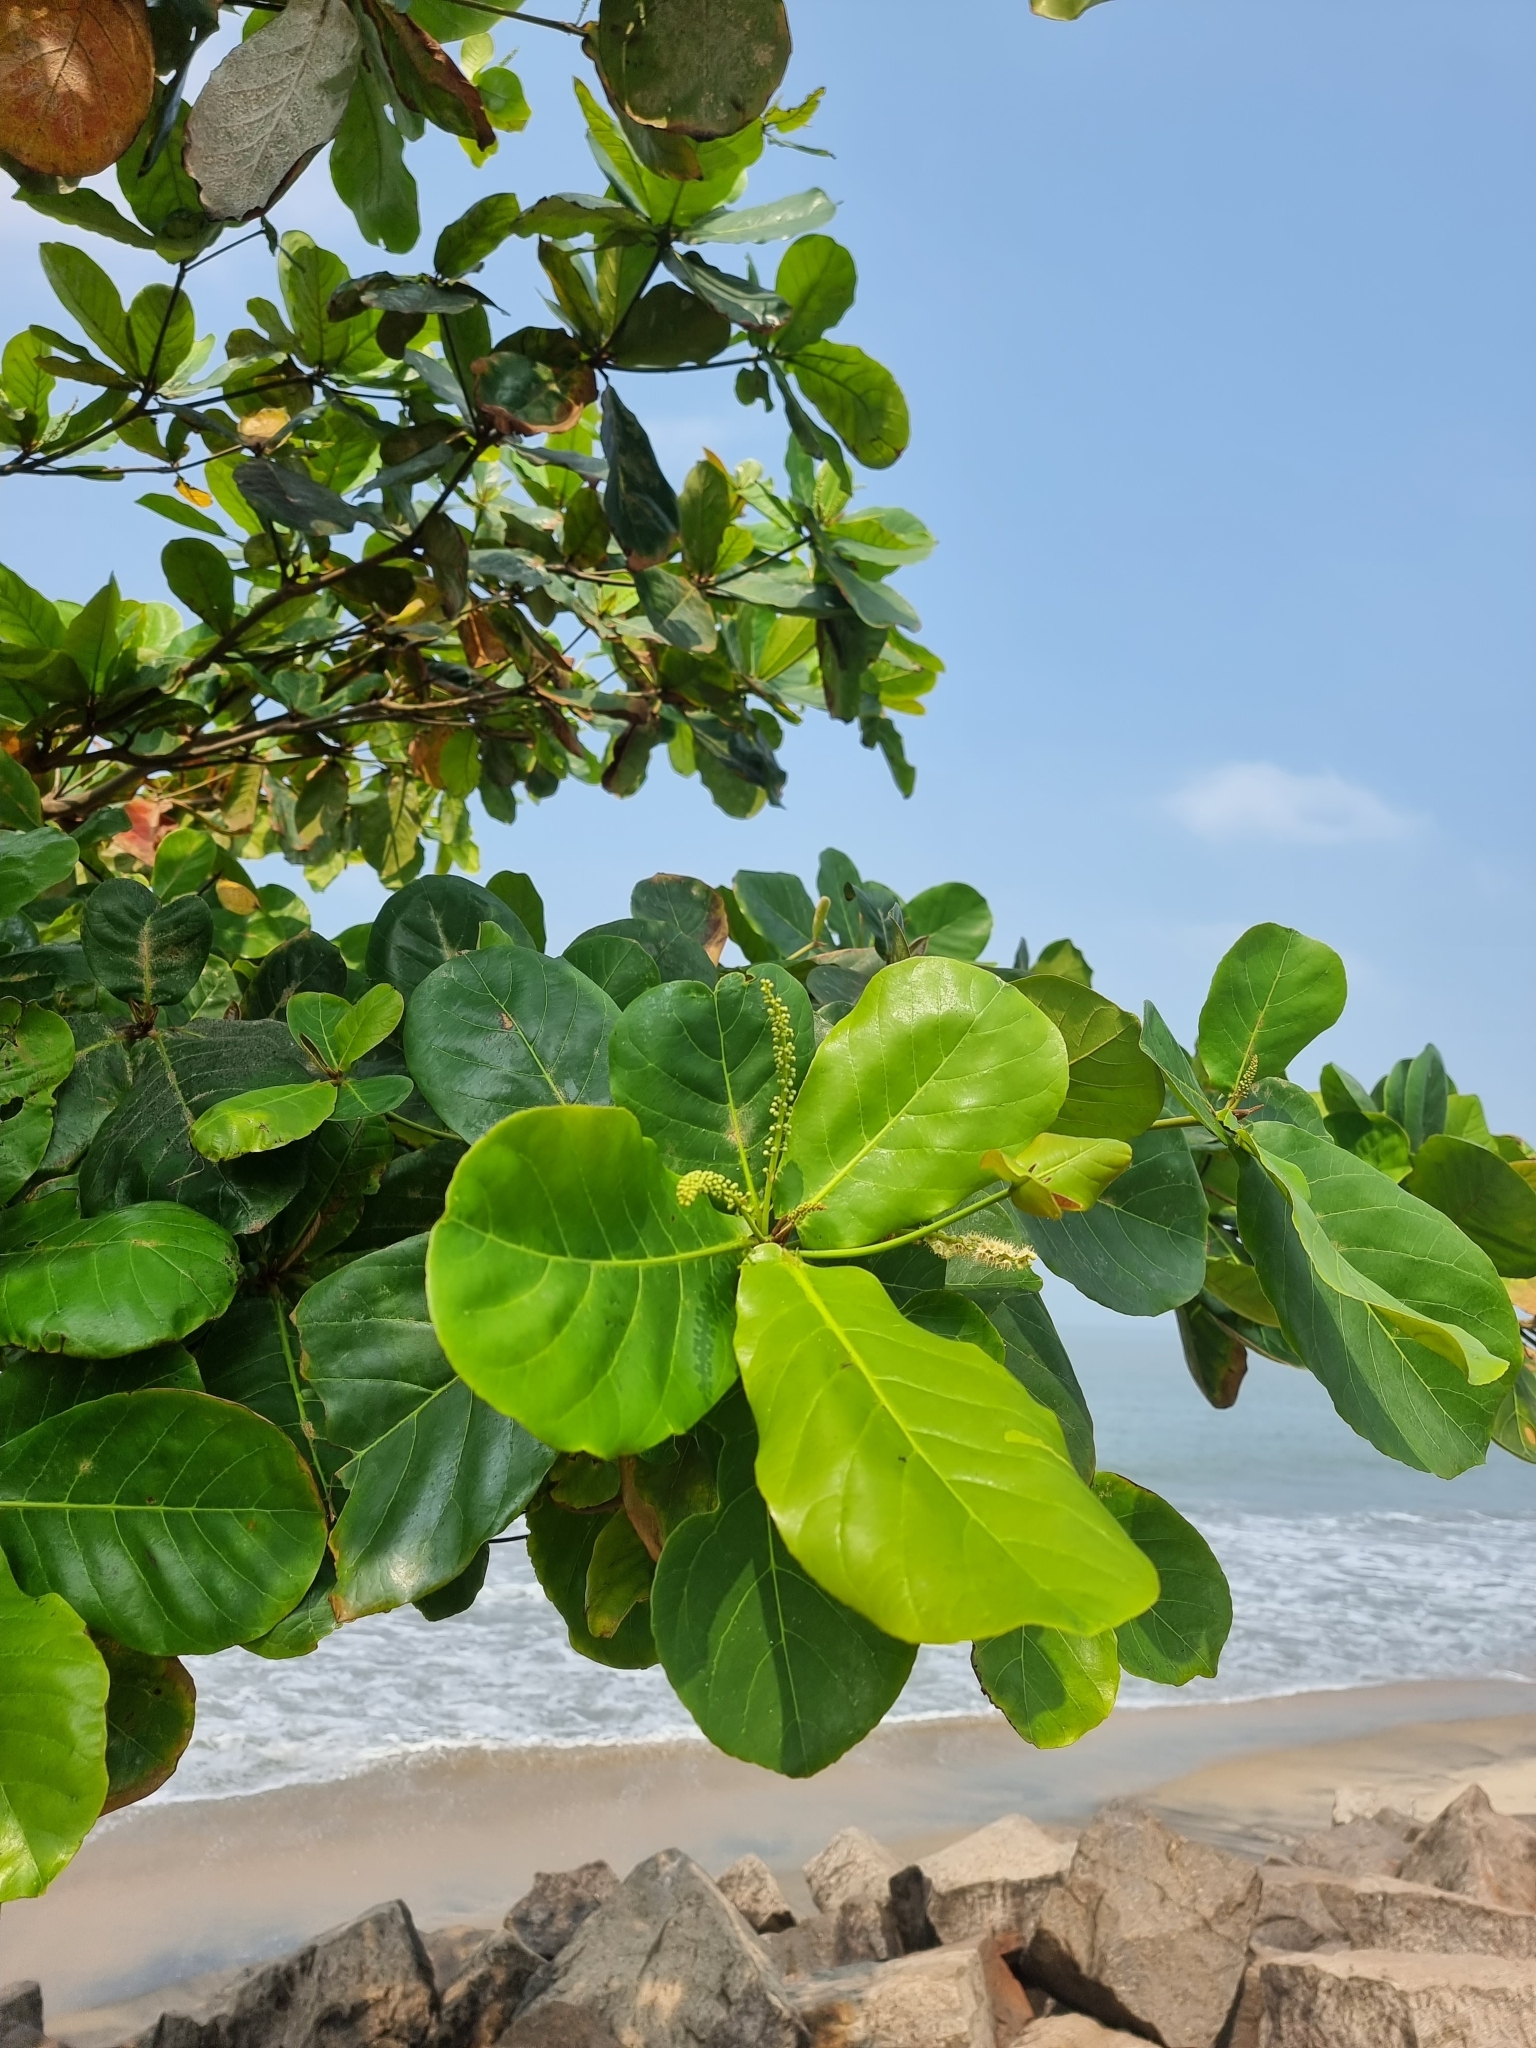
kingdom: Plantae
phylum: Tracheophyta
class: Magnoliopsida
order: Myrtales
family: Combretaceae
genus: Terminalia
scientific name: Terminalia catappa
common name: Tropical almond
